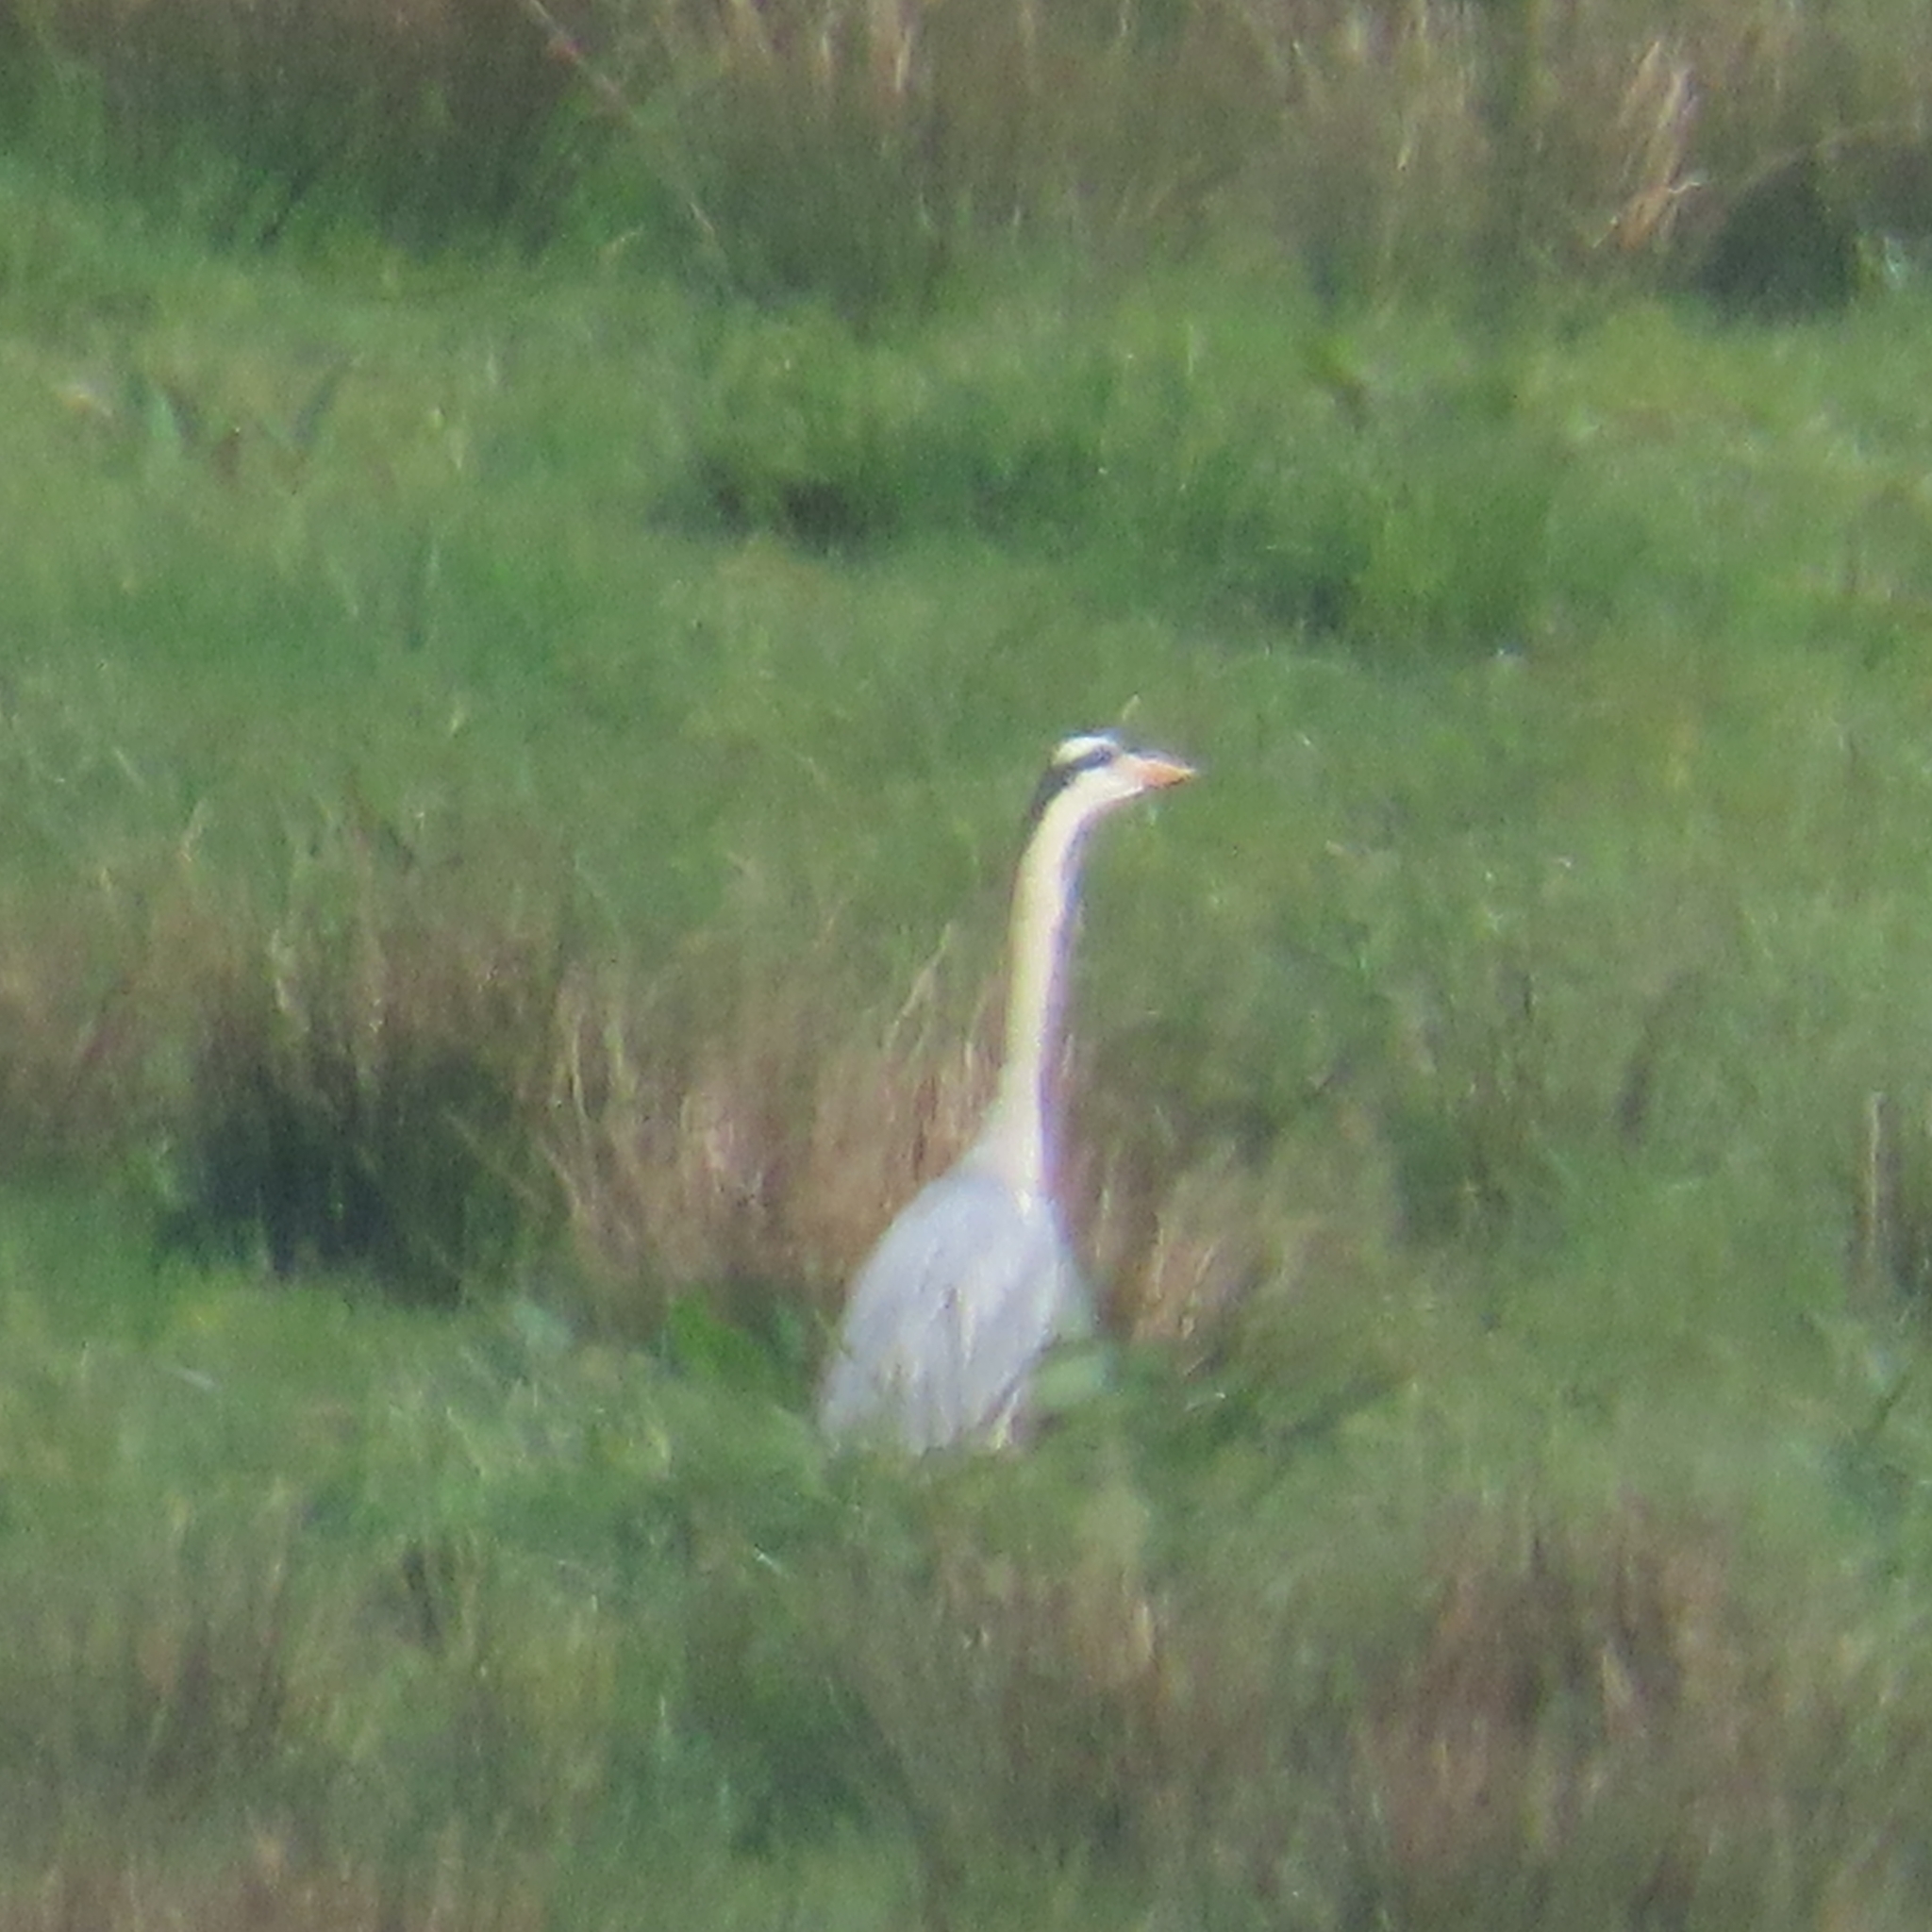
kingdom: Animalia
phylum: Chordata
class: Aves
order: Pelecaniformes
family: Ardeidae
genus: Ardea
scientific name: Ardea cinerea
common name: Grey heron
